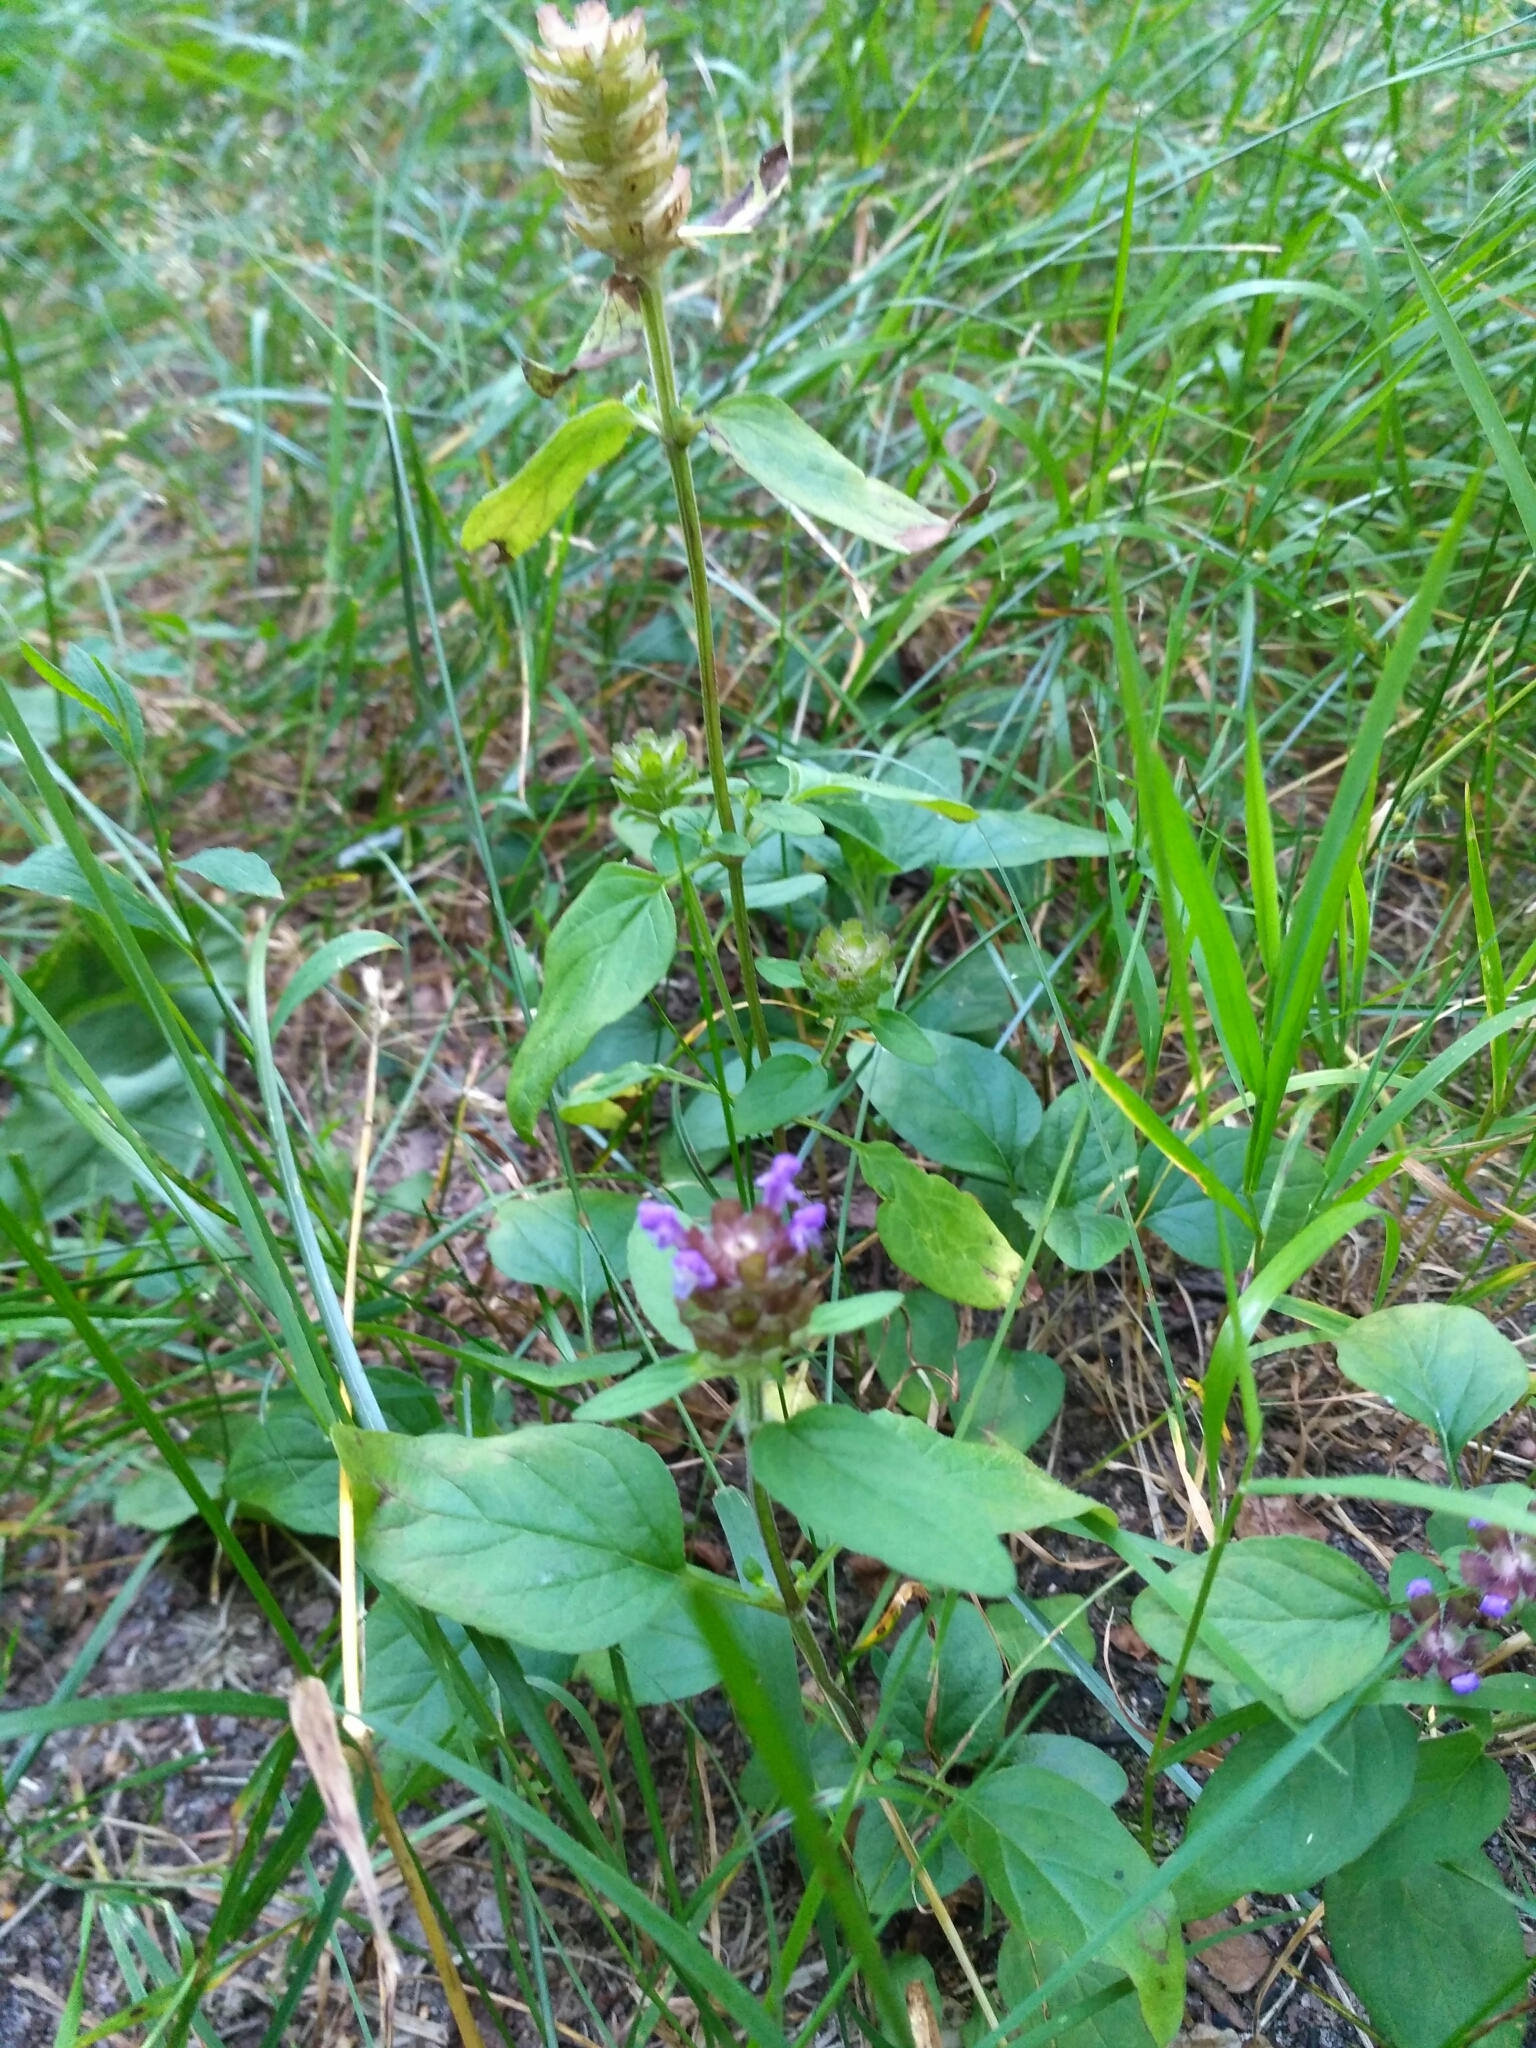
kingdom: Plantae
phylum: Tracheophyta
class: Magnoliopsida
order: Lamiales
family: Lamiaceae
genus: Prunella
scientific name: Prunella vulgaris
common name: Heal-all
